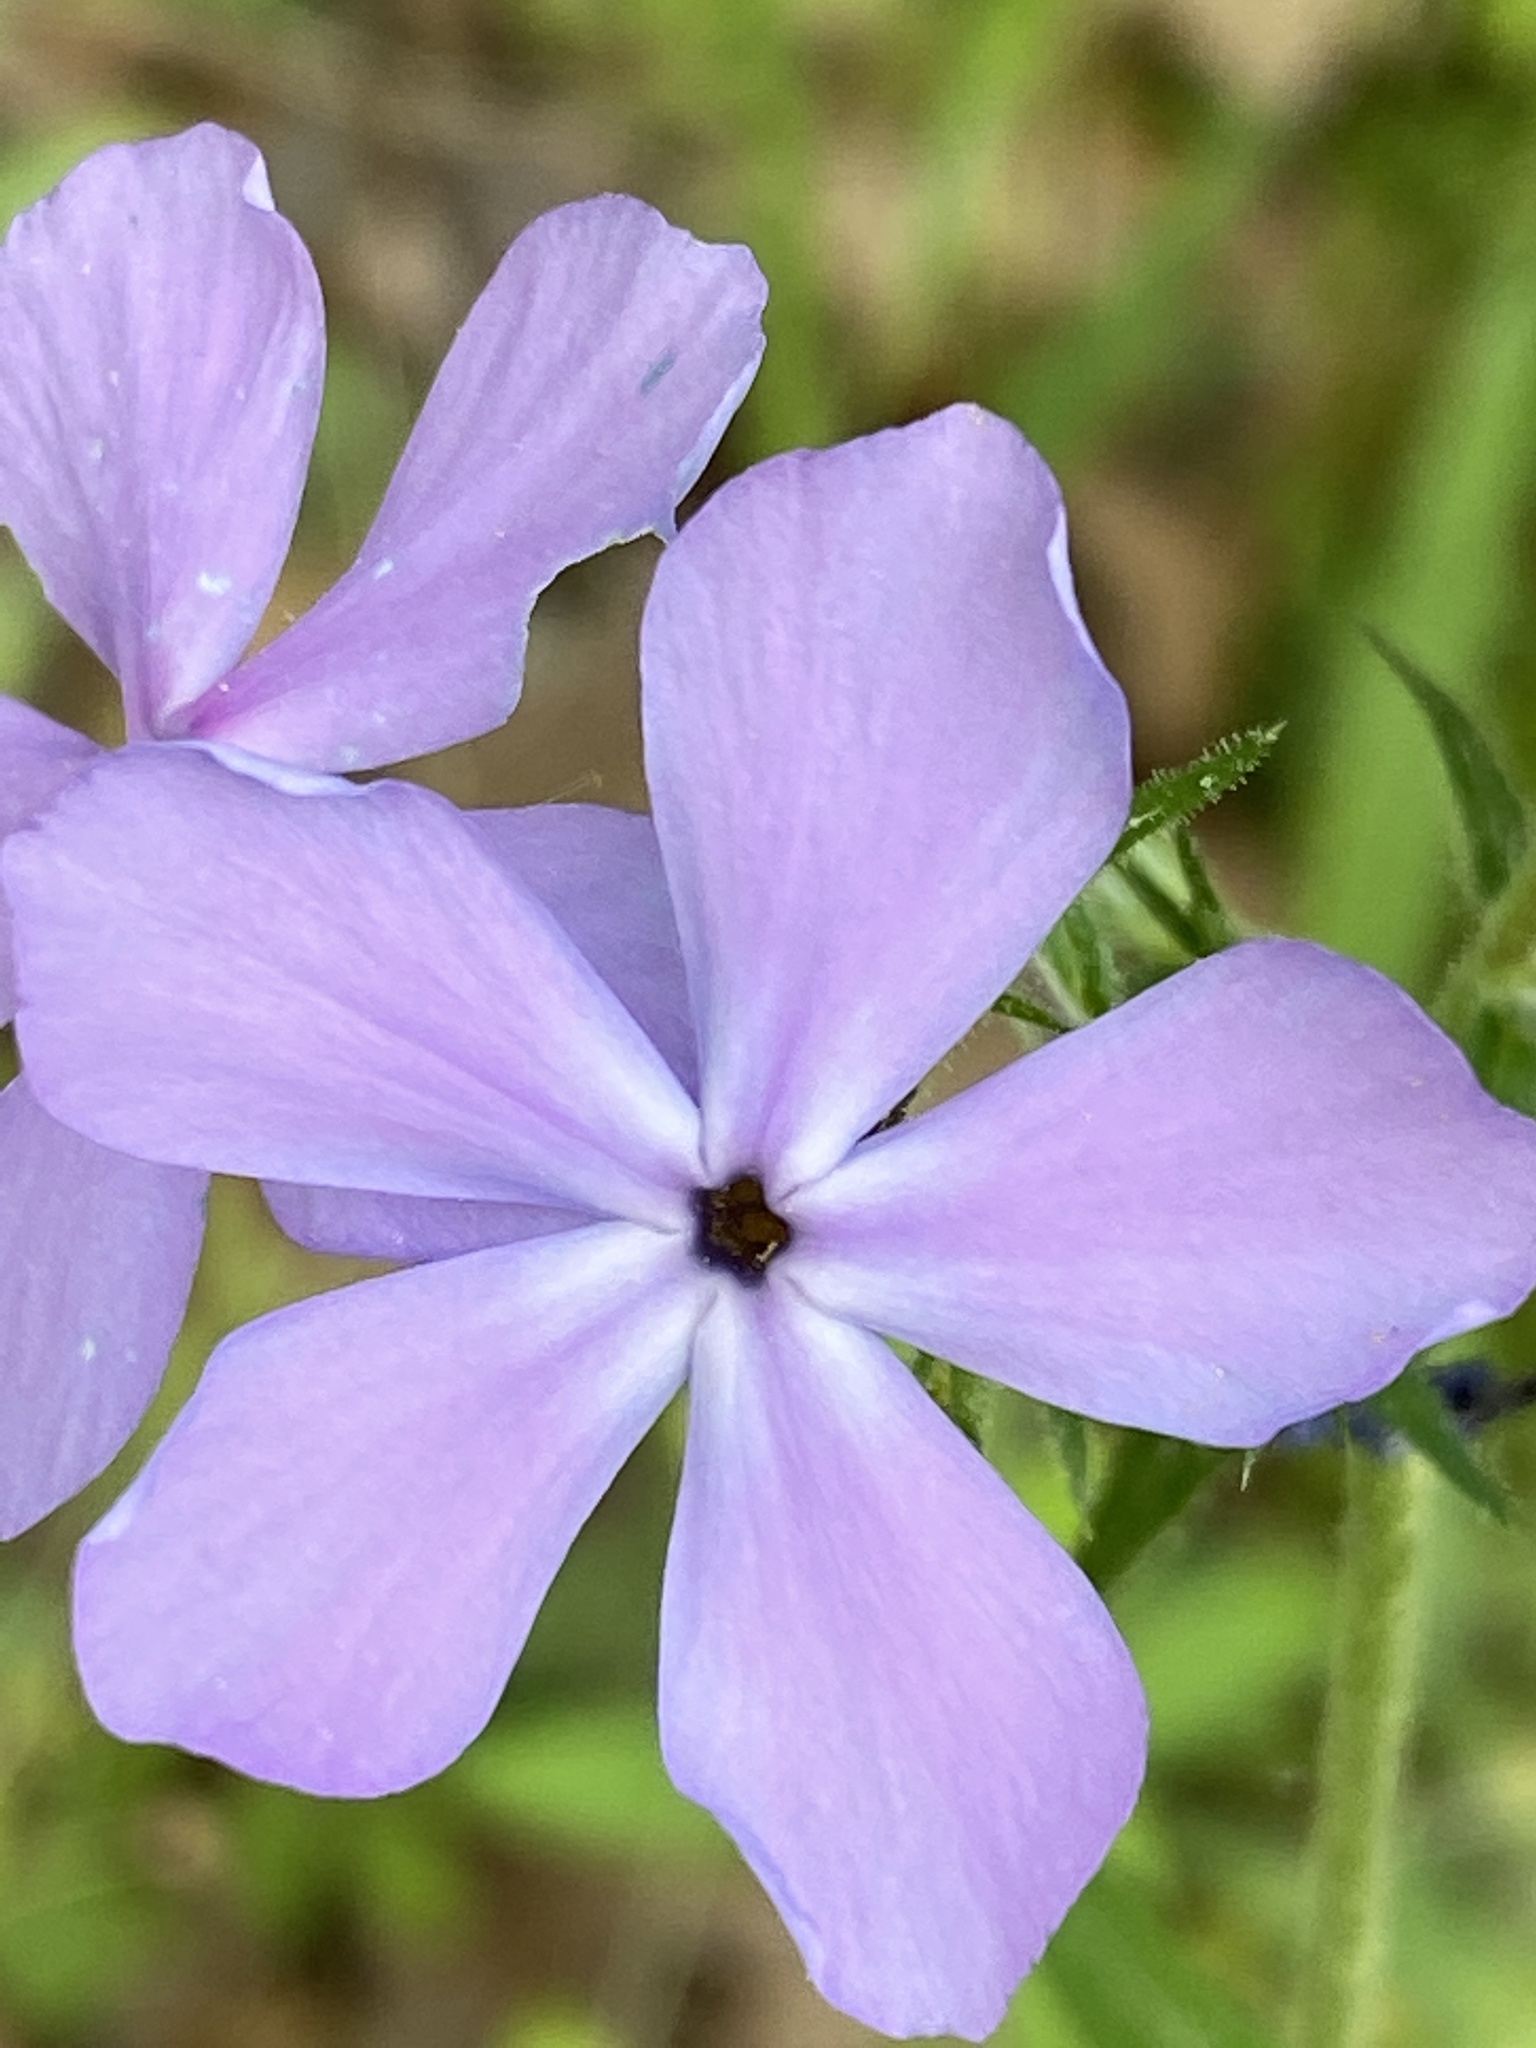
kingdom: Plantae
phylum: Tracheophyta
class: Magnoliopsida
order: Ericales
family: Polemoniaceae
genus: Phlox
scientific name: Phlox divaricata
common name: Blue phlox
